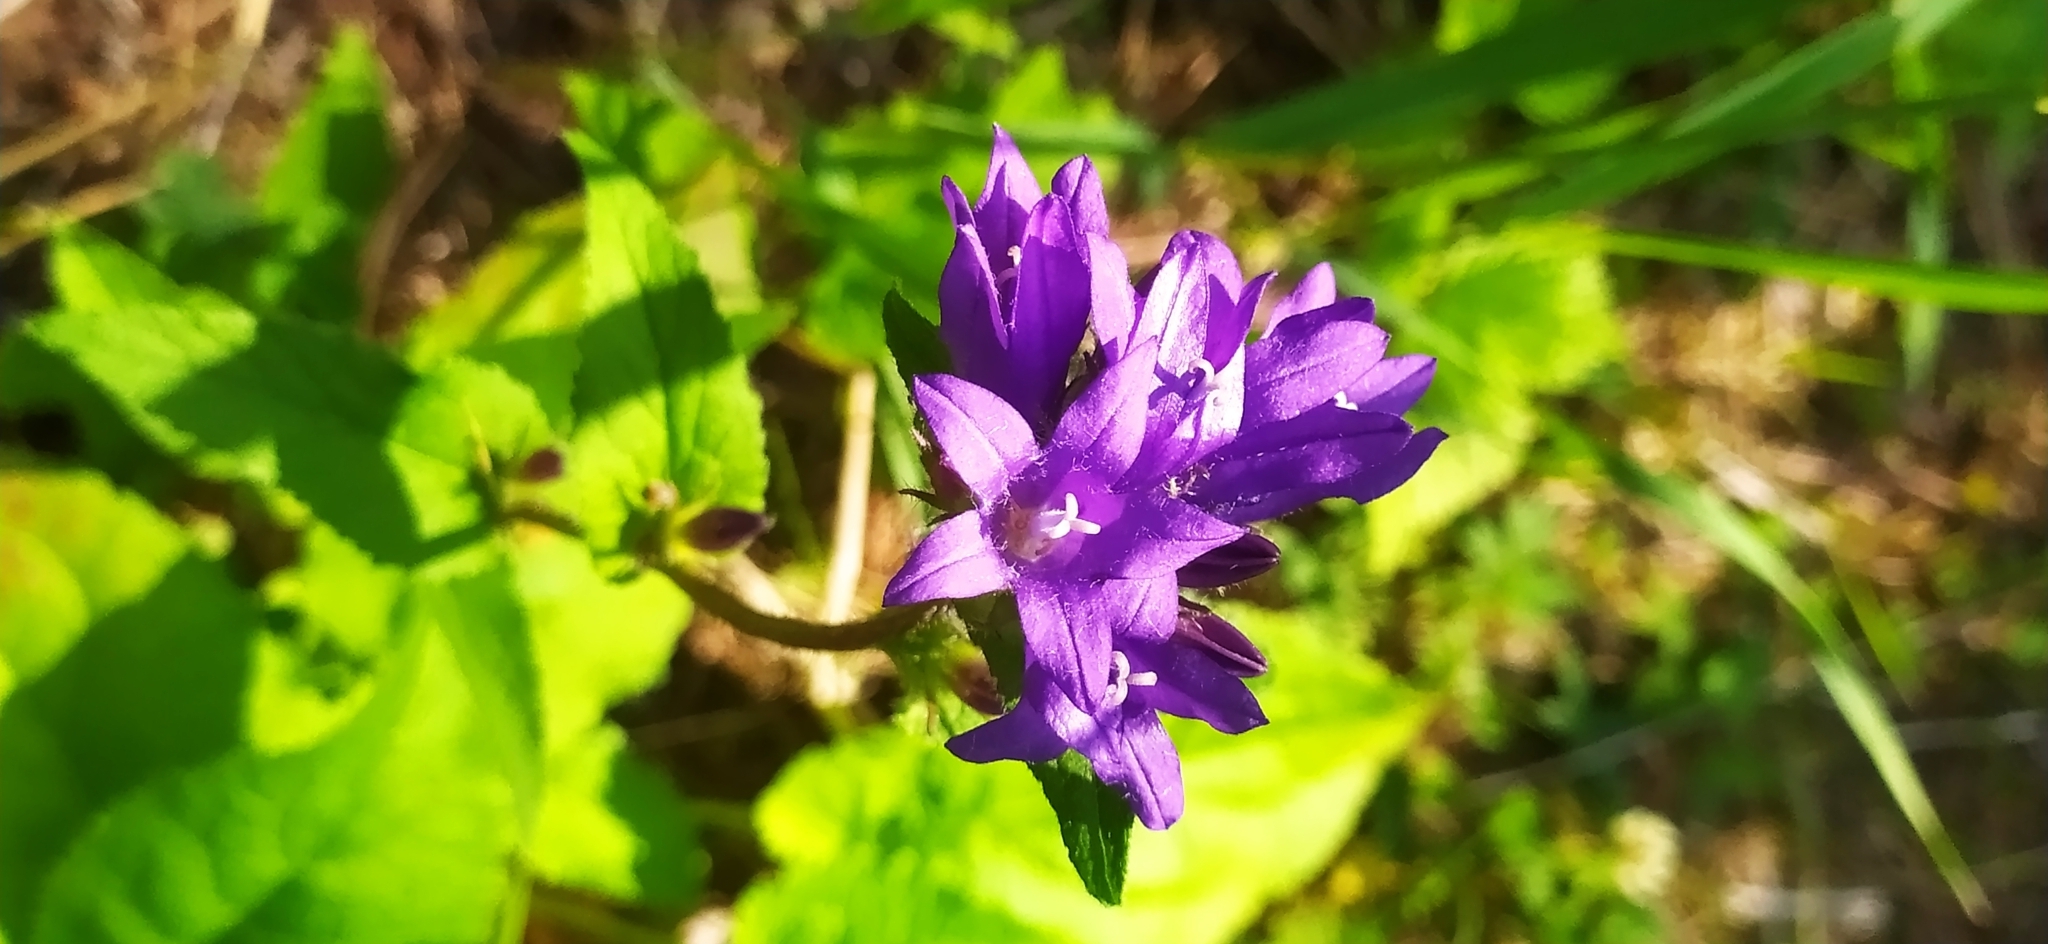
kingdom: Plantae
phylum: Tracheophyta
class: Magnoliopsida
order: Asterales
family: Campanulaceae
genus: Campanula
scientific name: Campanula glomerata
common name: Clustered bellflower
